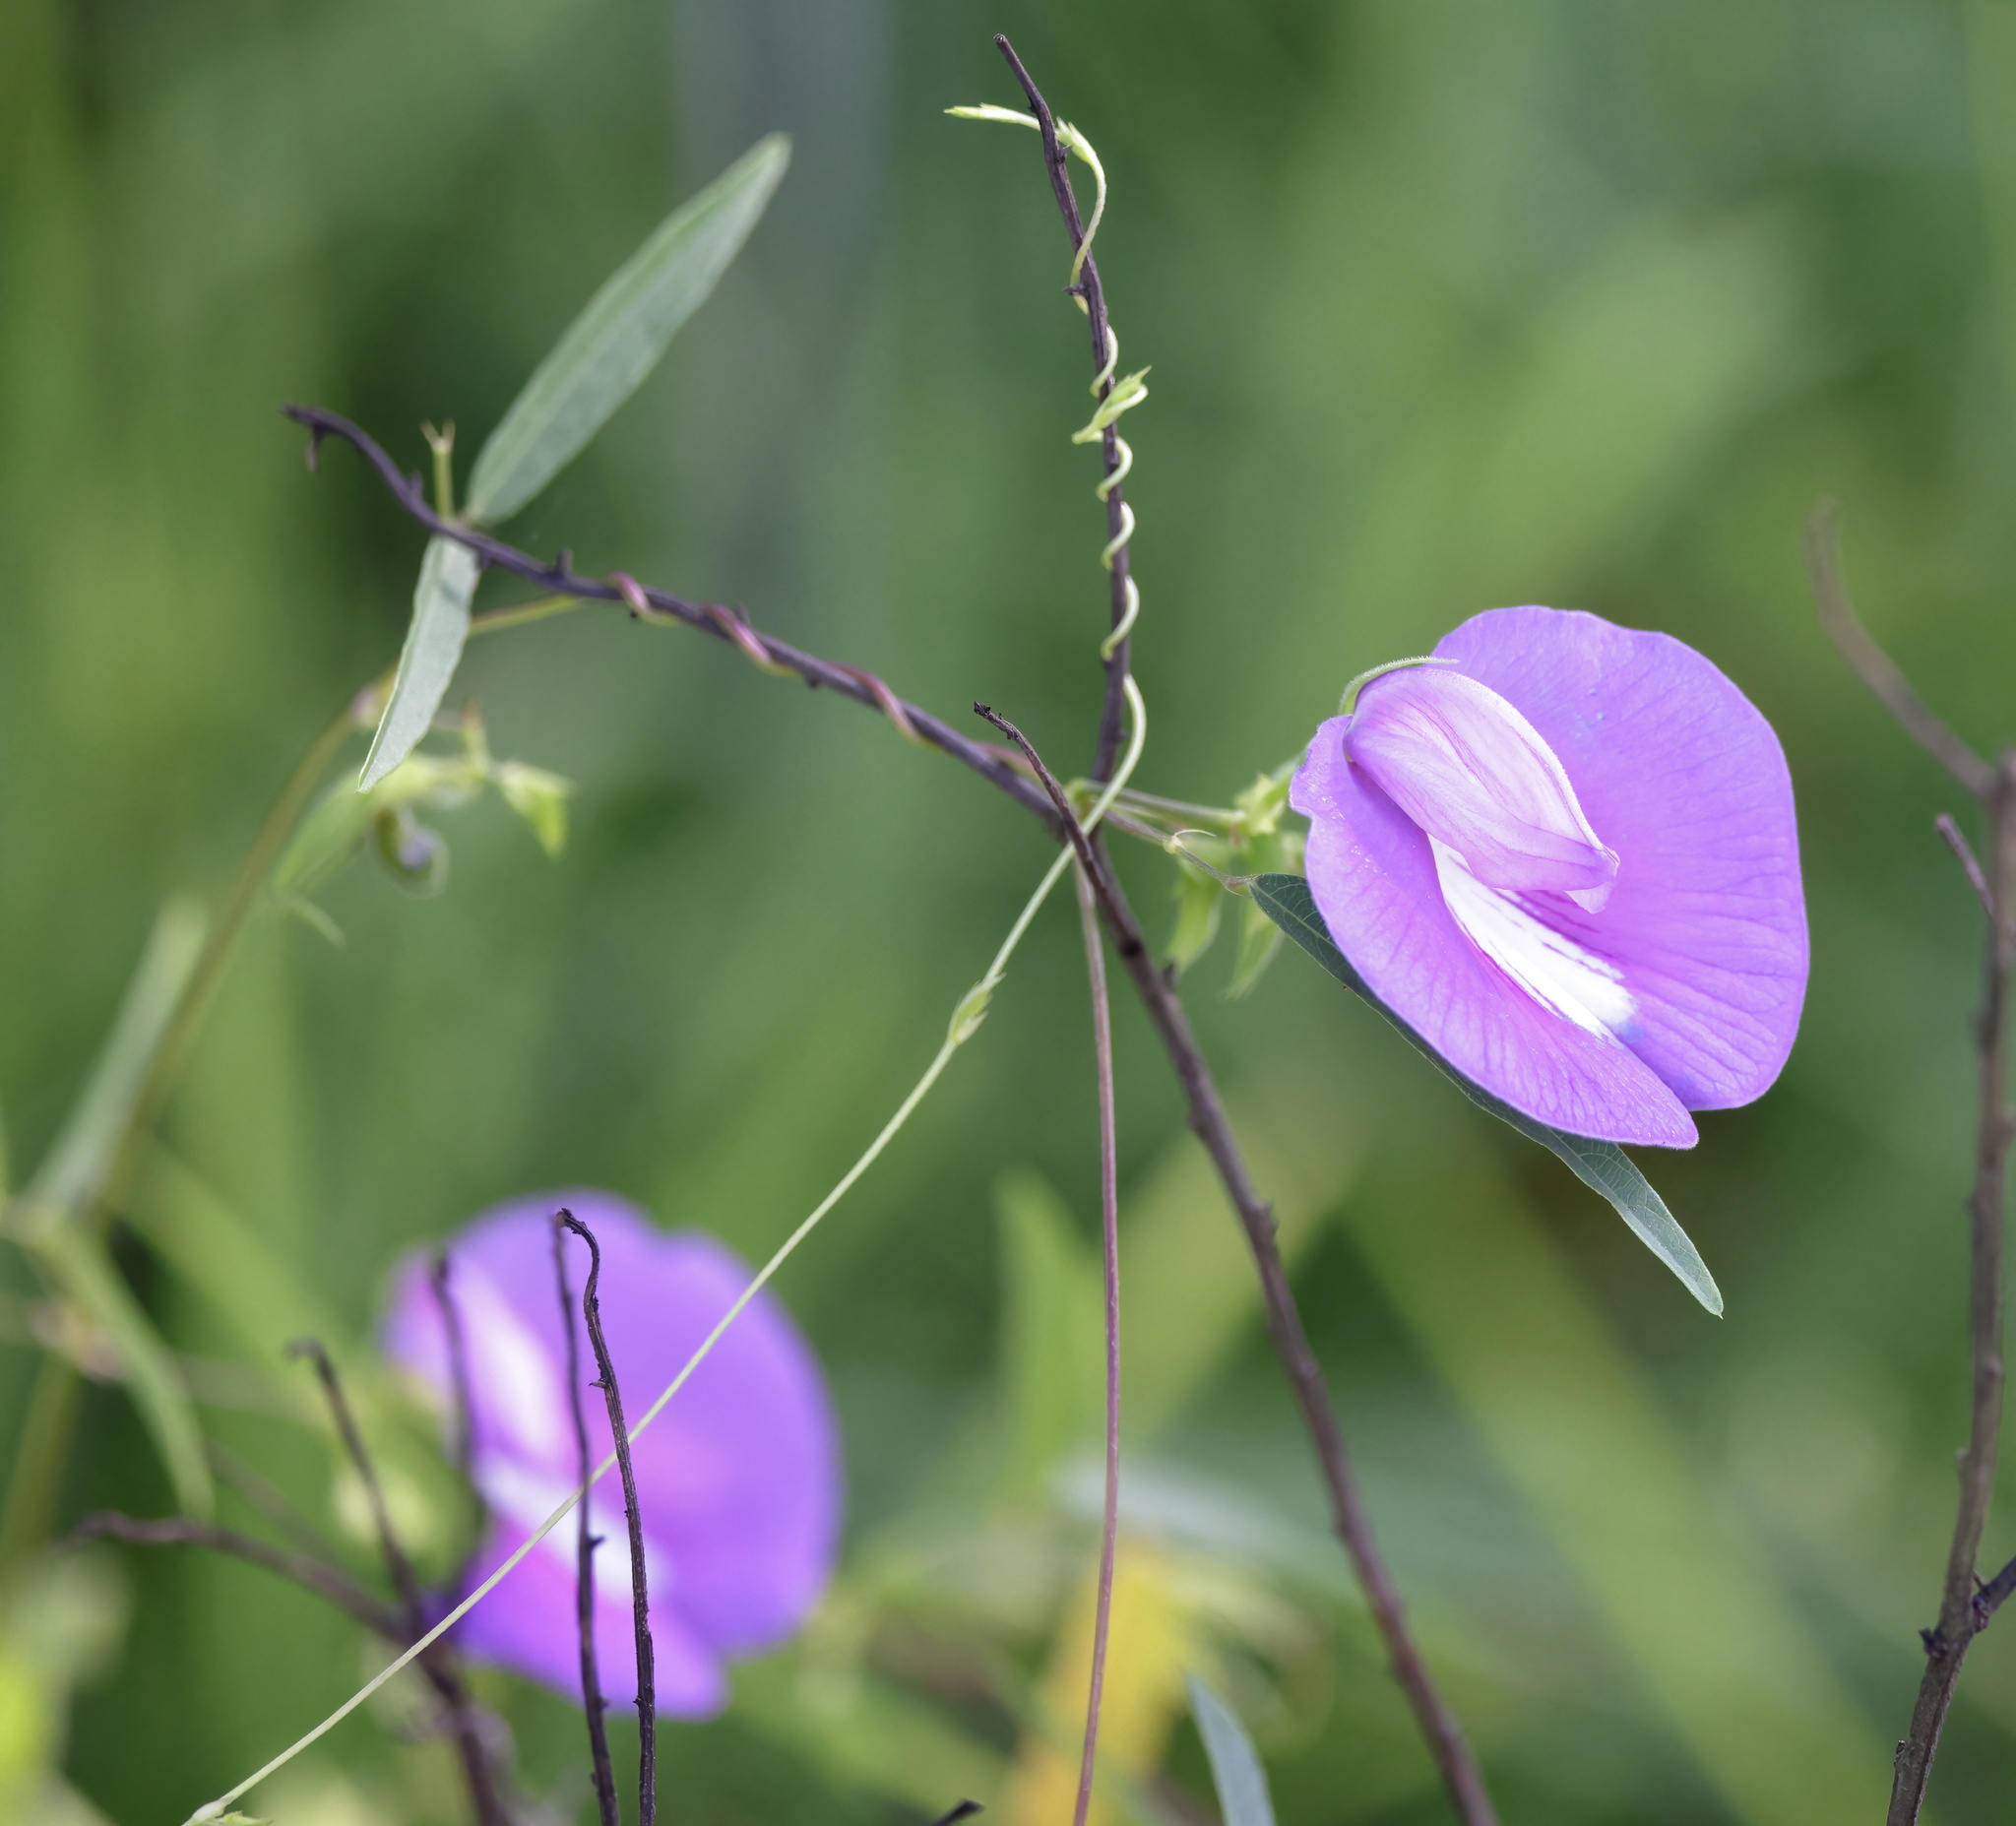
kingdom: Plantae
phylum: Tracheophyta
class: Magnoliopsida
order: Fabales
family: Fabaceae
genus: Centrosema
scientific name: Centrosema virginianum
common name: Butterfly-pea
